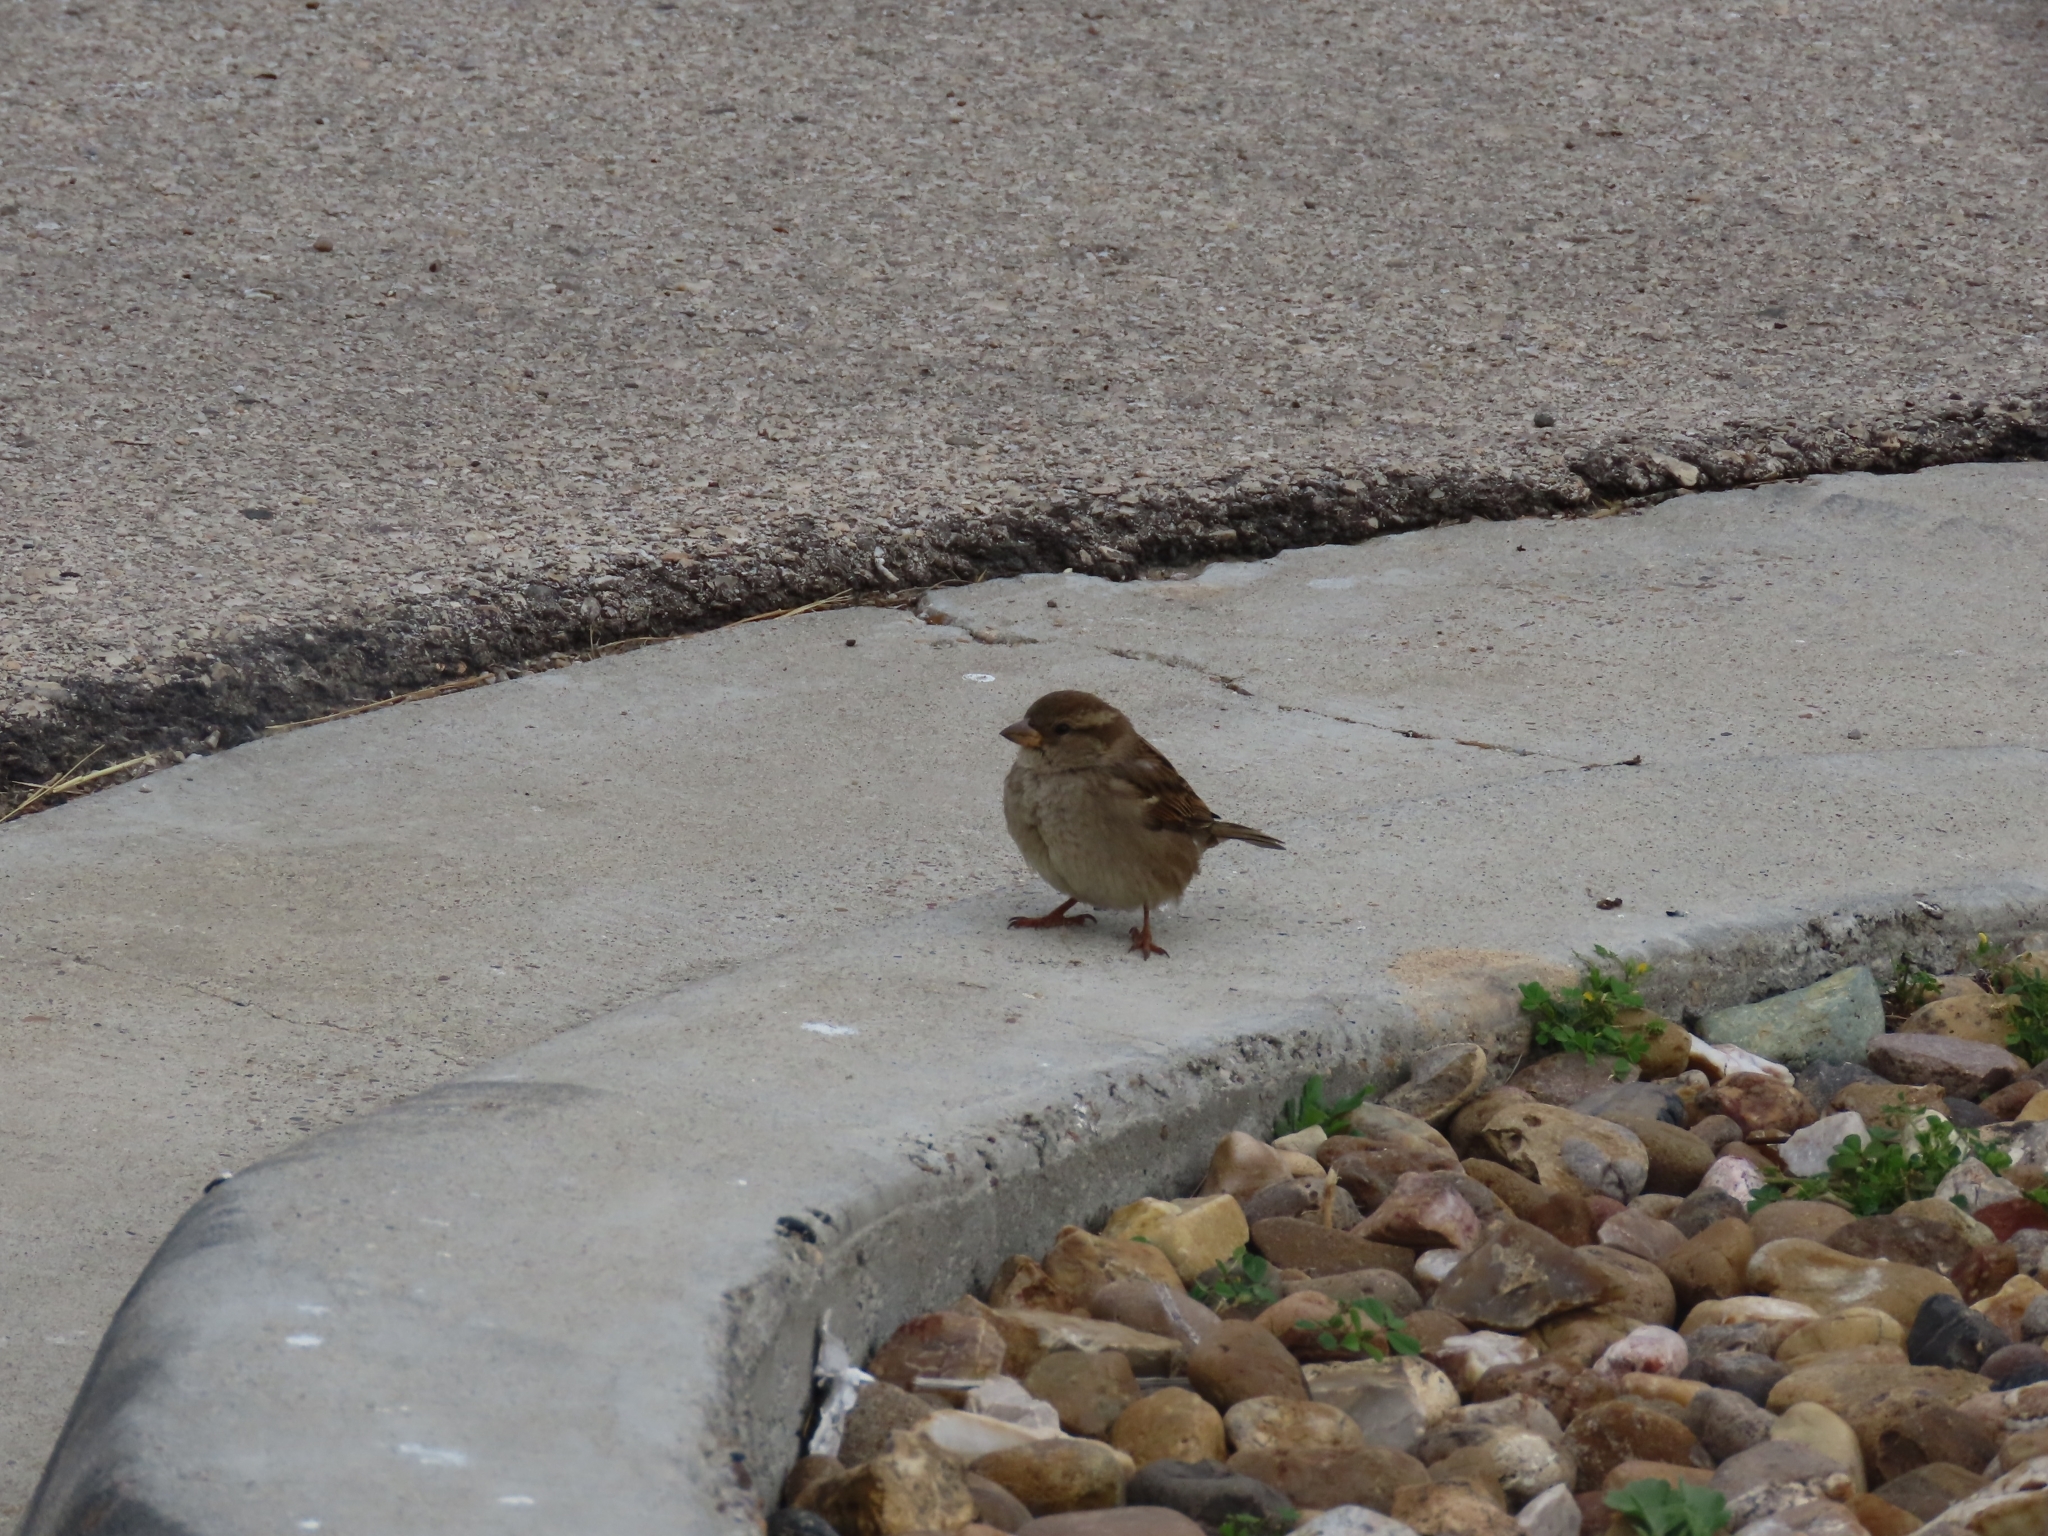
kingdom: Animalia
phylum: Chordata
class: Aves
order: Passeriformes
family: Passeridae
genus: Passer
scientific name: Passer domesticus
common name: House sparrow
